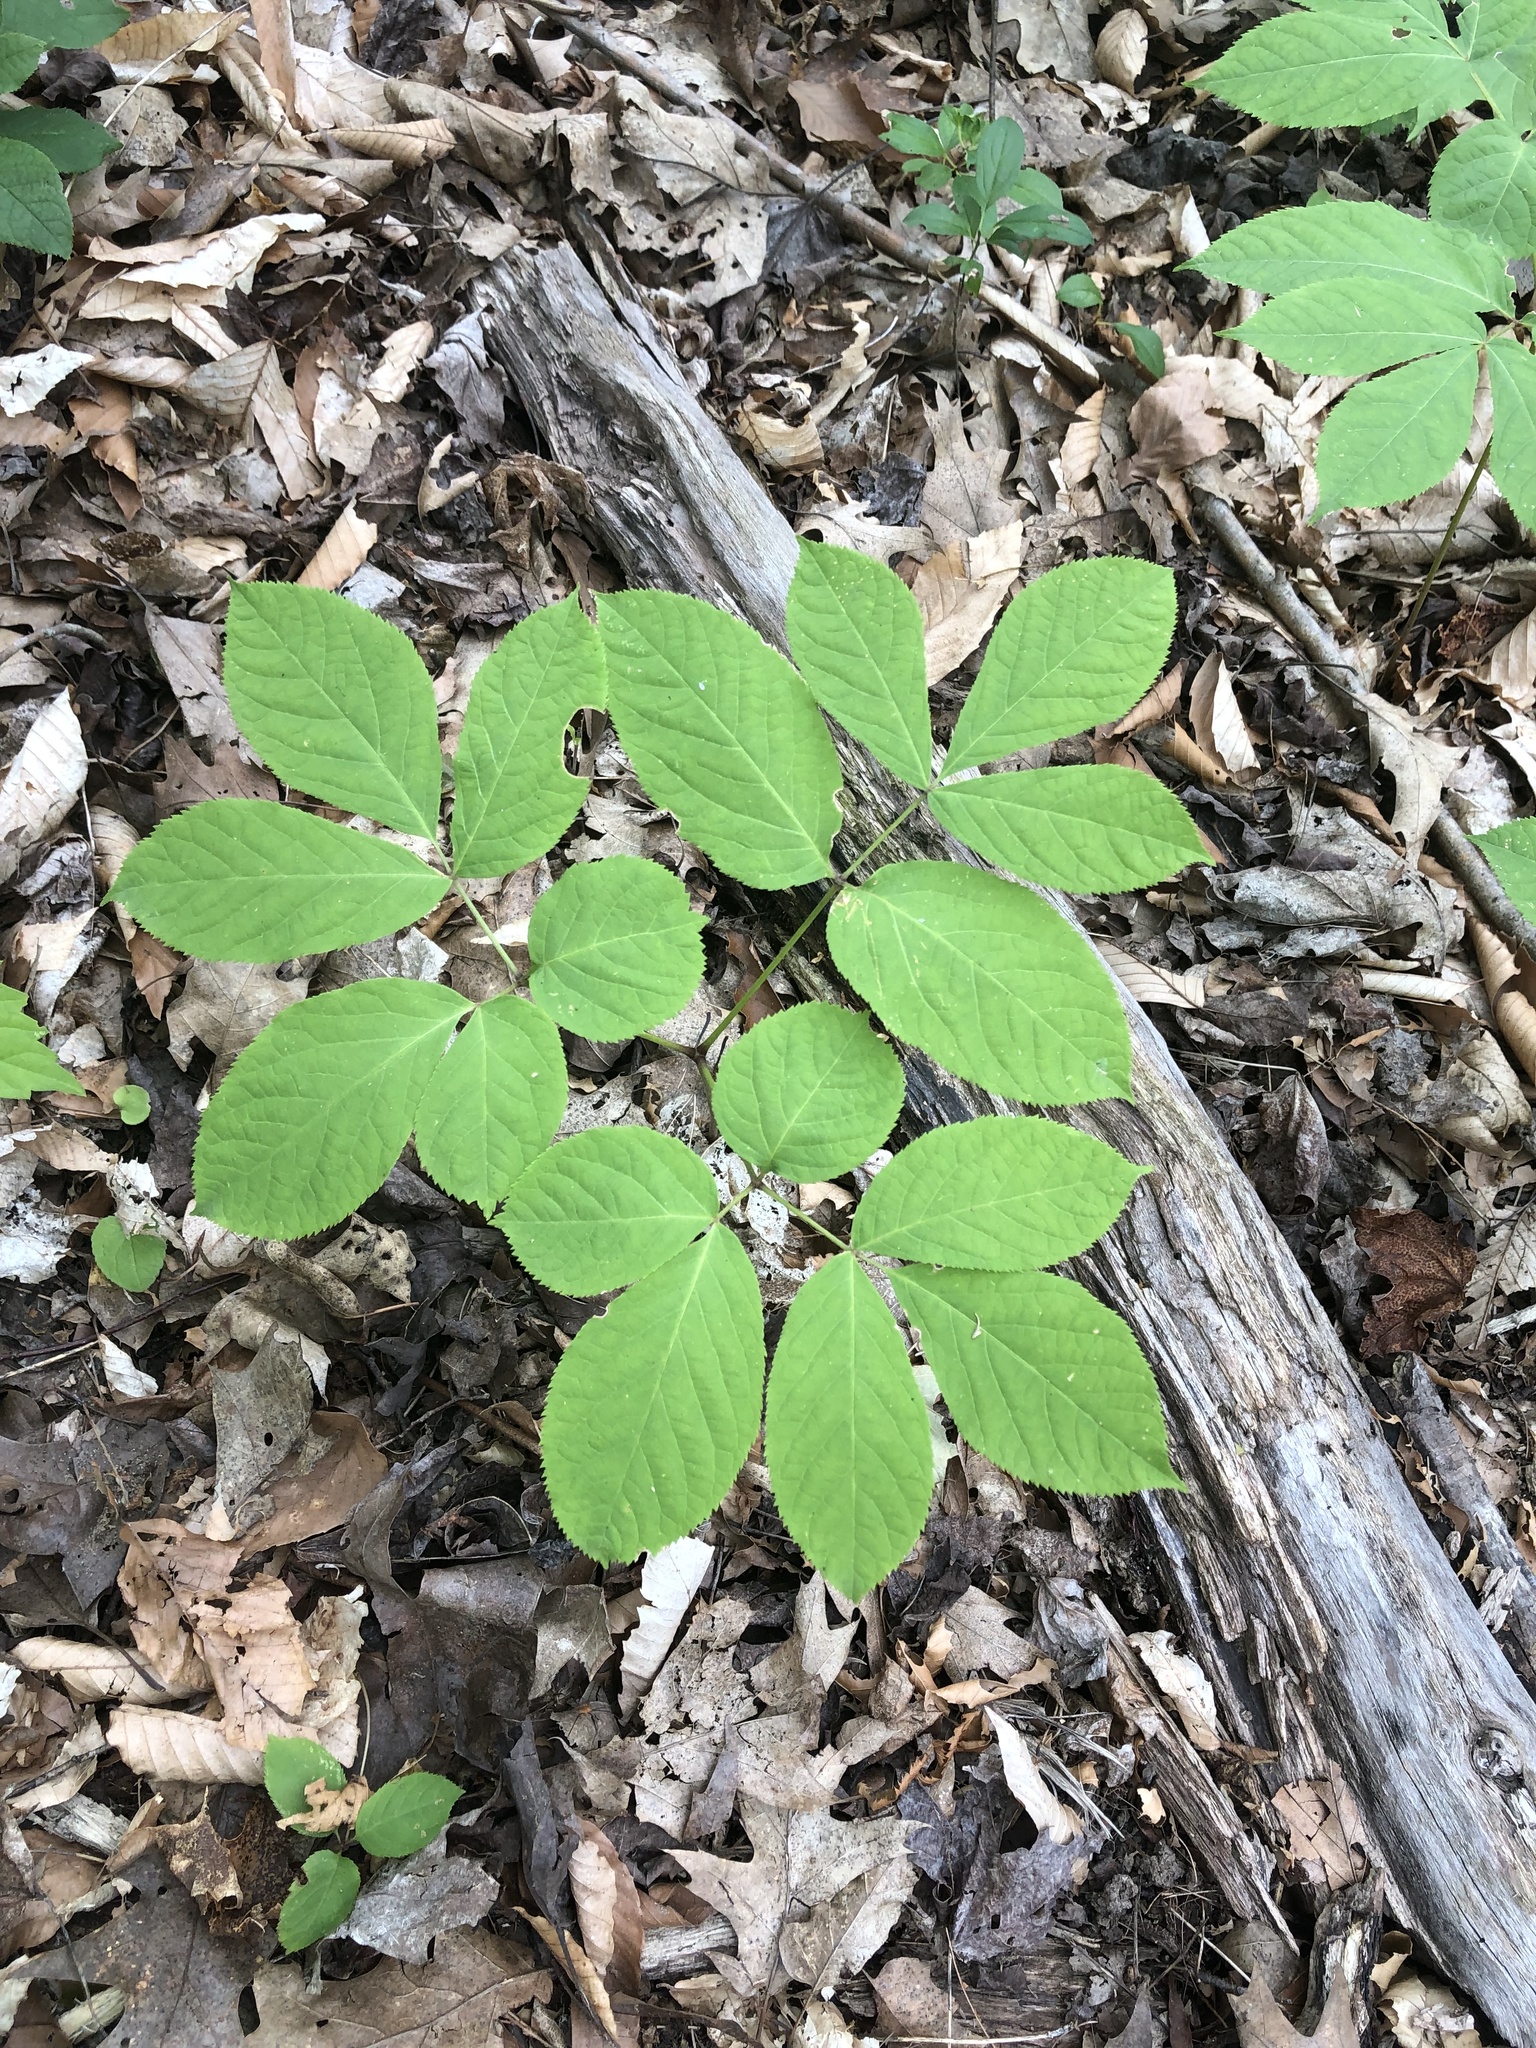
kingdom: Plantae
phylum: Tracheophyta
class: Magnoliopsida
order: Apiales
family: Araliaceae
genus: Aralia
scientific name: Aralia nudicaulis
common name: Wild sarsaparilla
